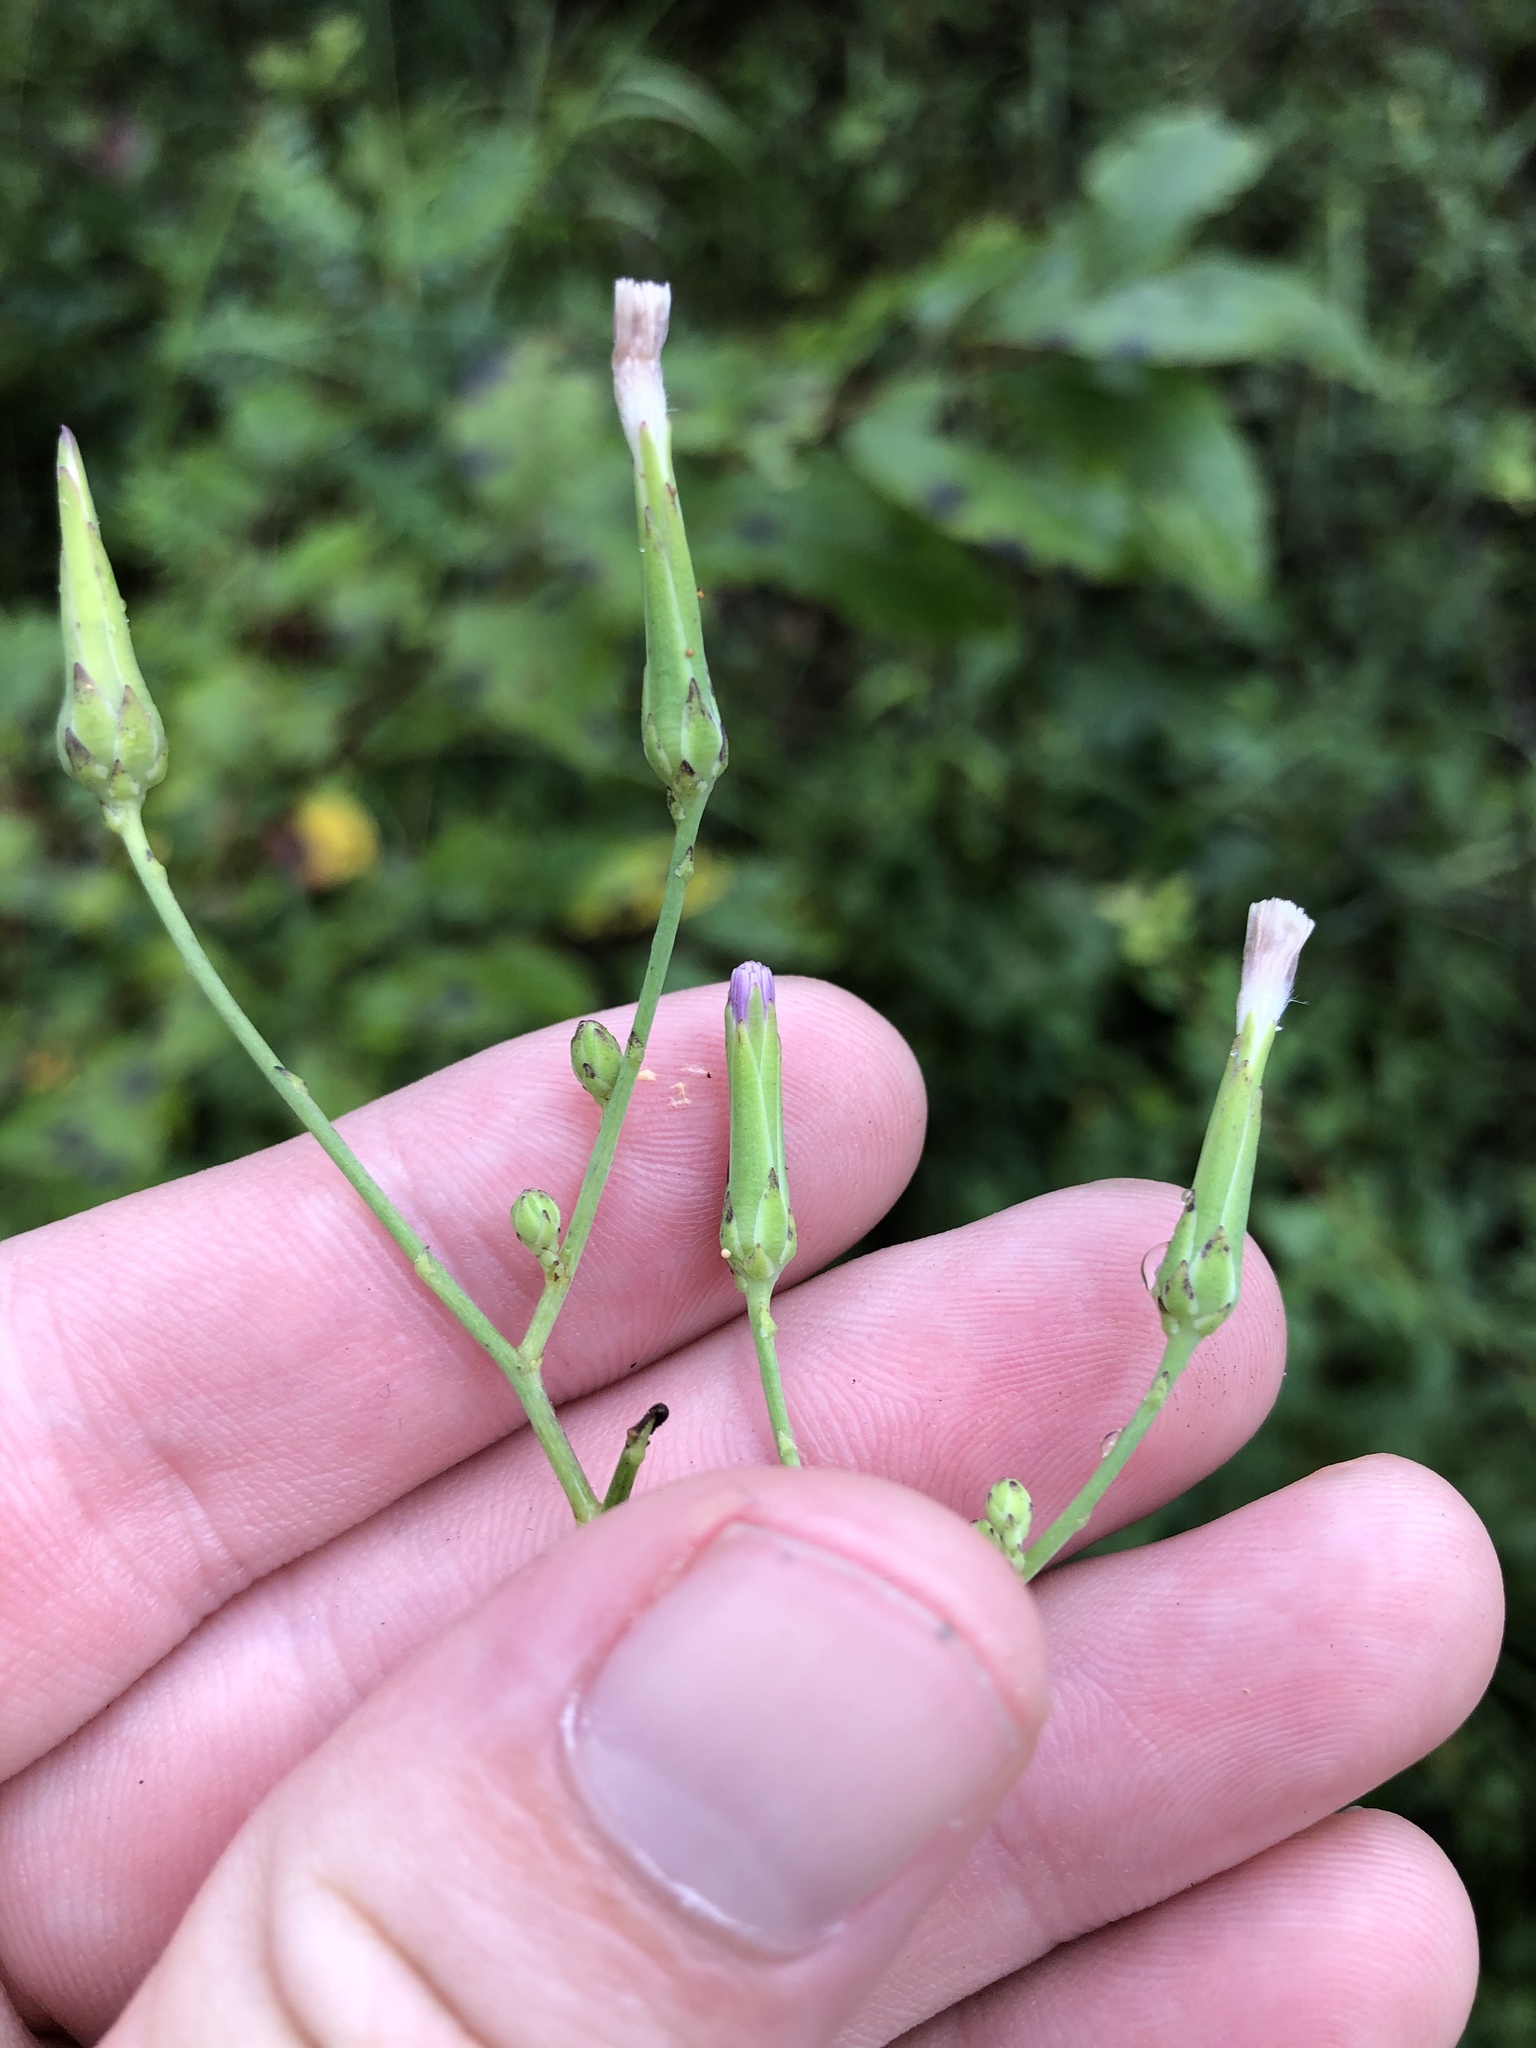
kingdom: Plantae
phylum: Tracheophyta
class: Magnoliopsida
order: Asterales
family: Asteraceae
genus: Lactuca
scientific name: Lactuca graminifolia
